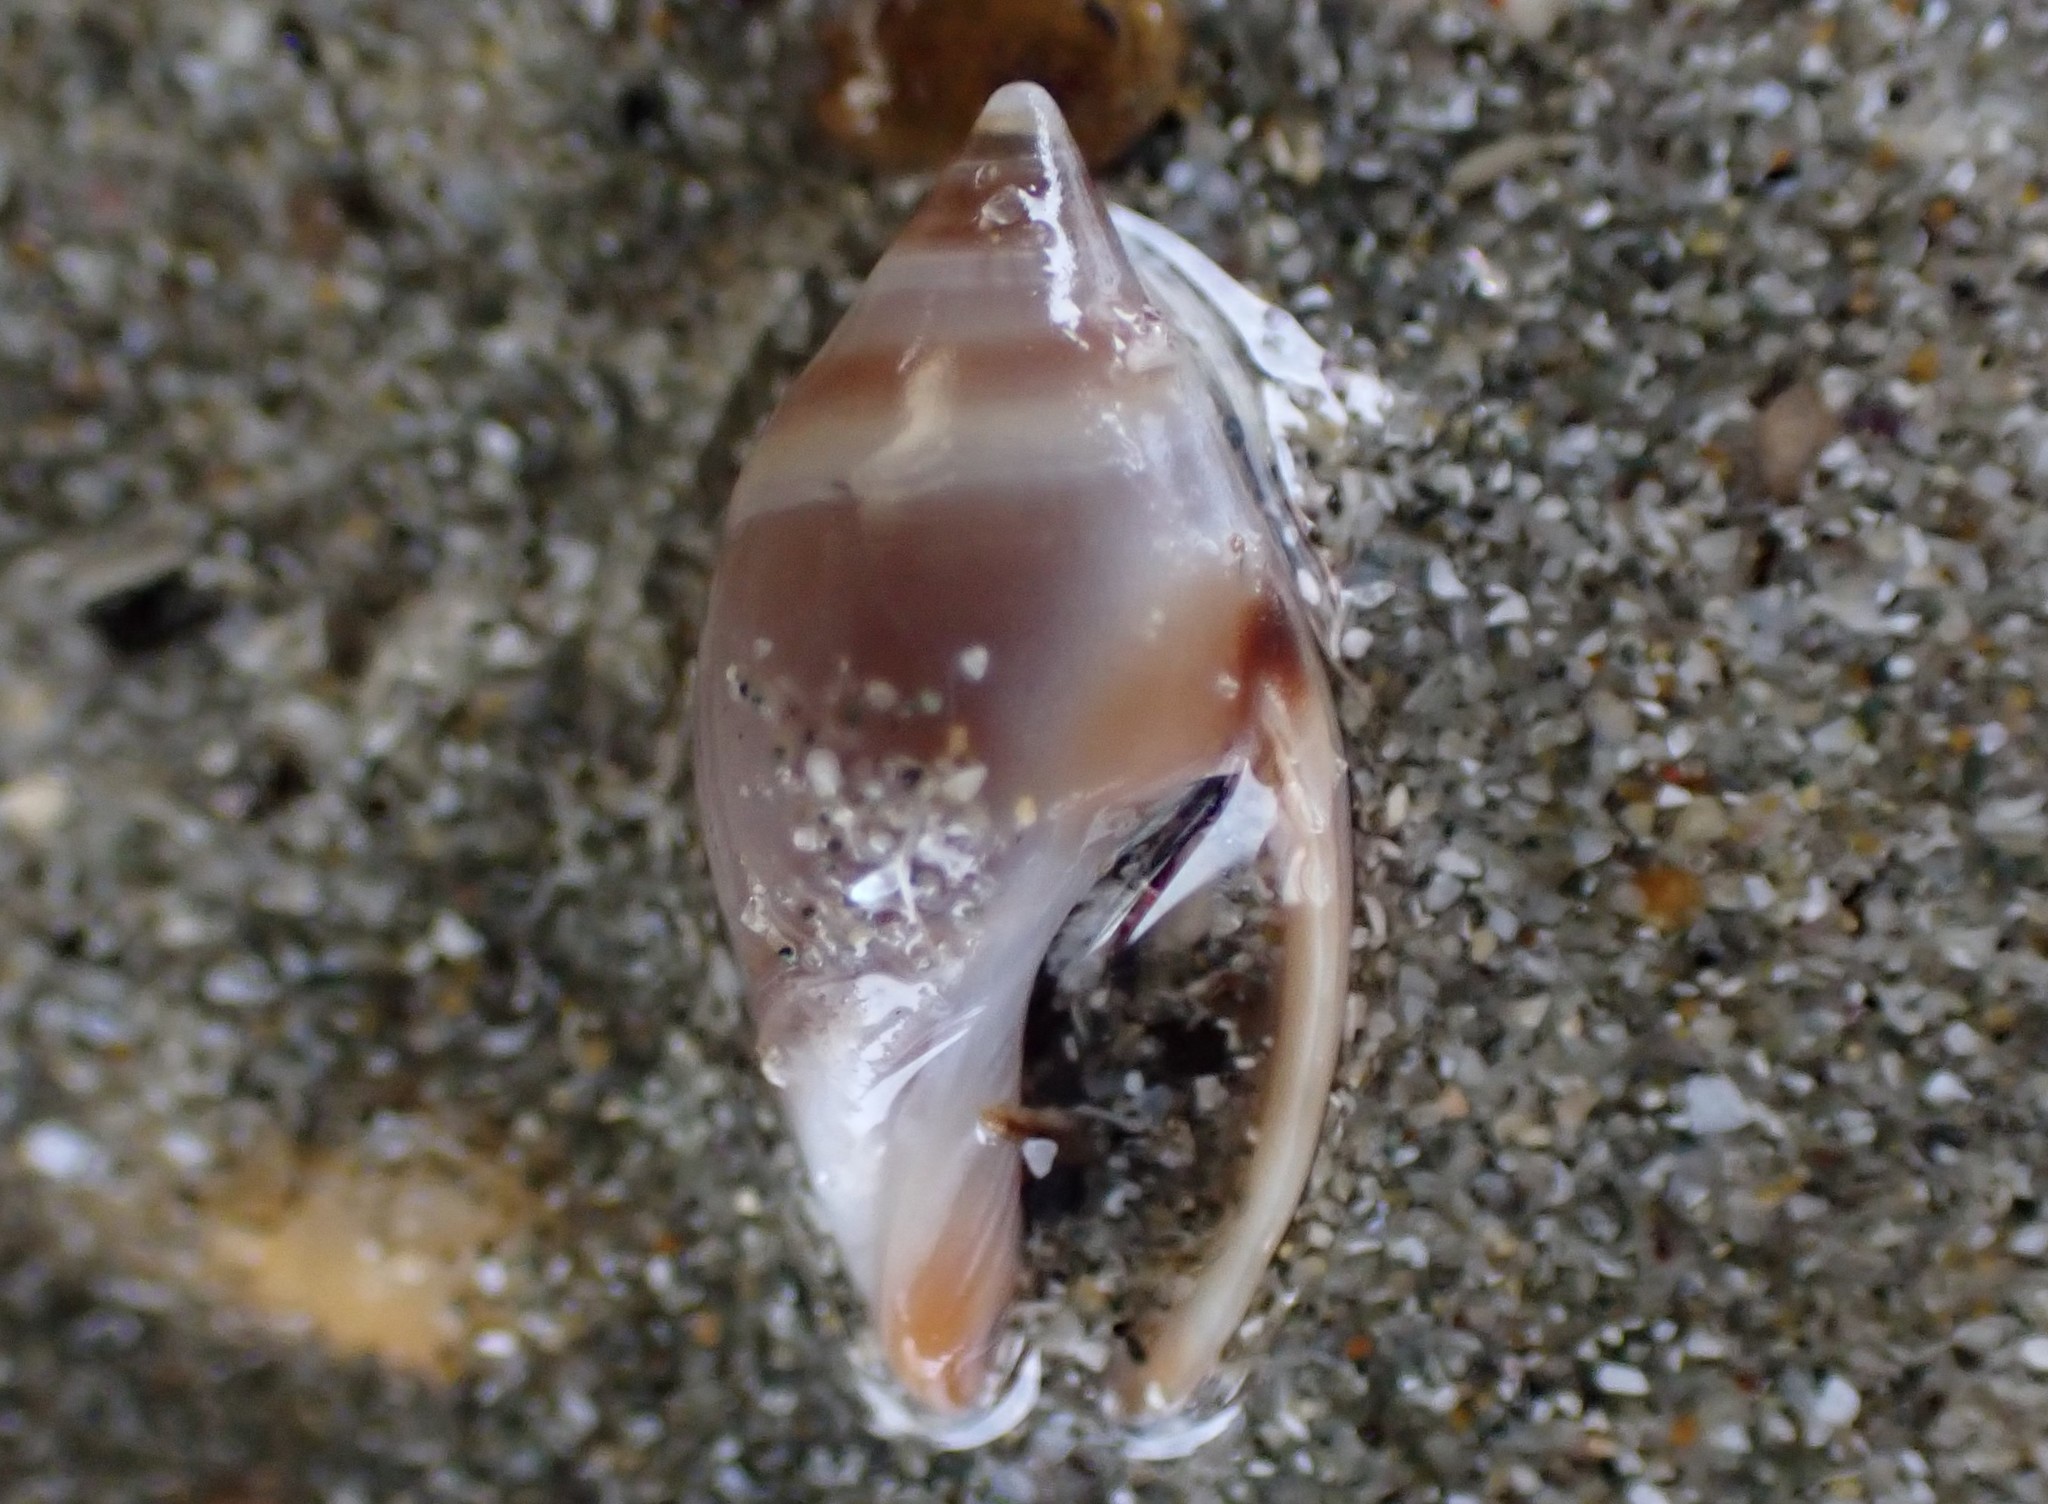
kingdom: Animalia
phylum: Mollusca
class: Gastropoda
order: Neogastropoda
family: Ancillariidae
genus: Amalda
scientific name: Amalda australis
